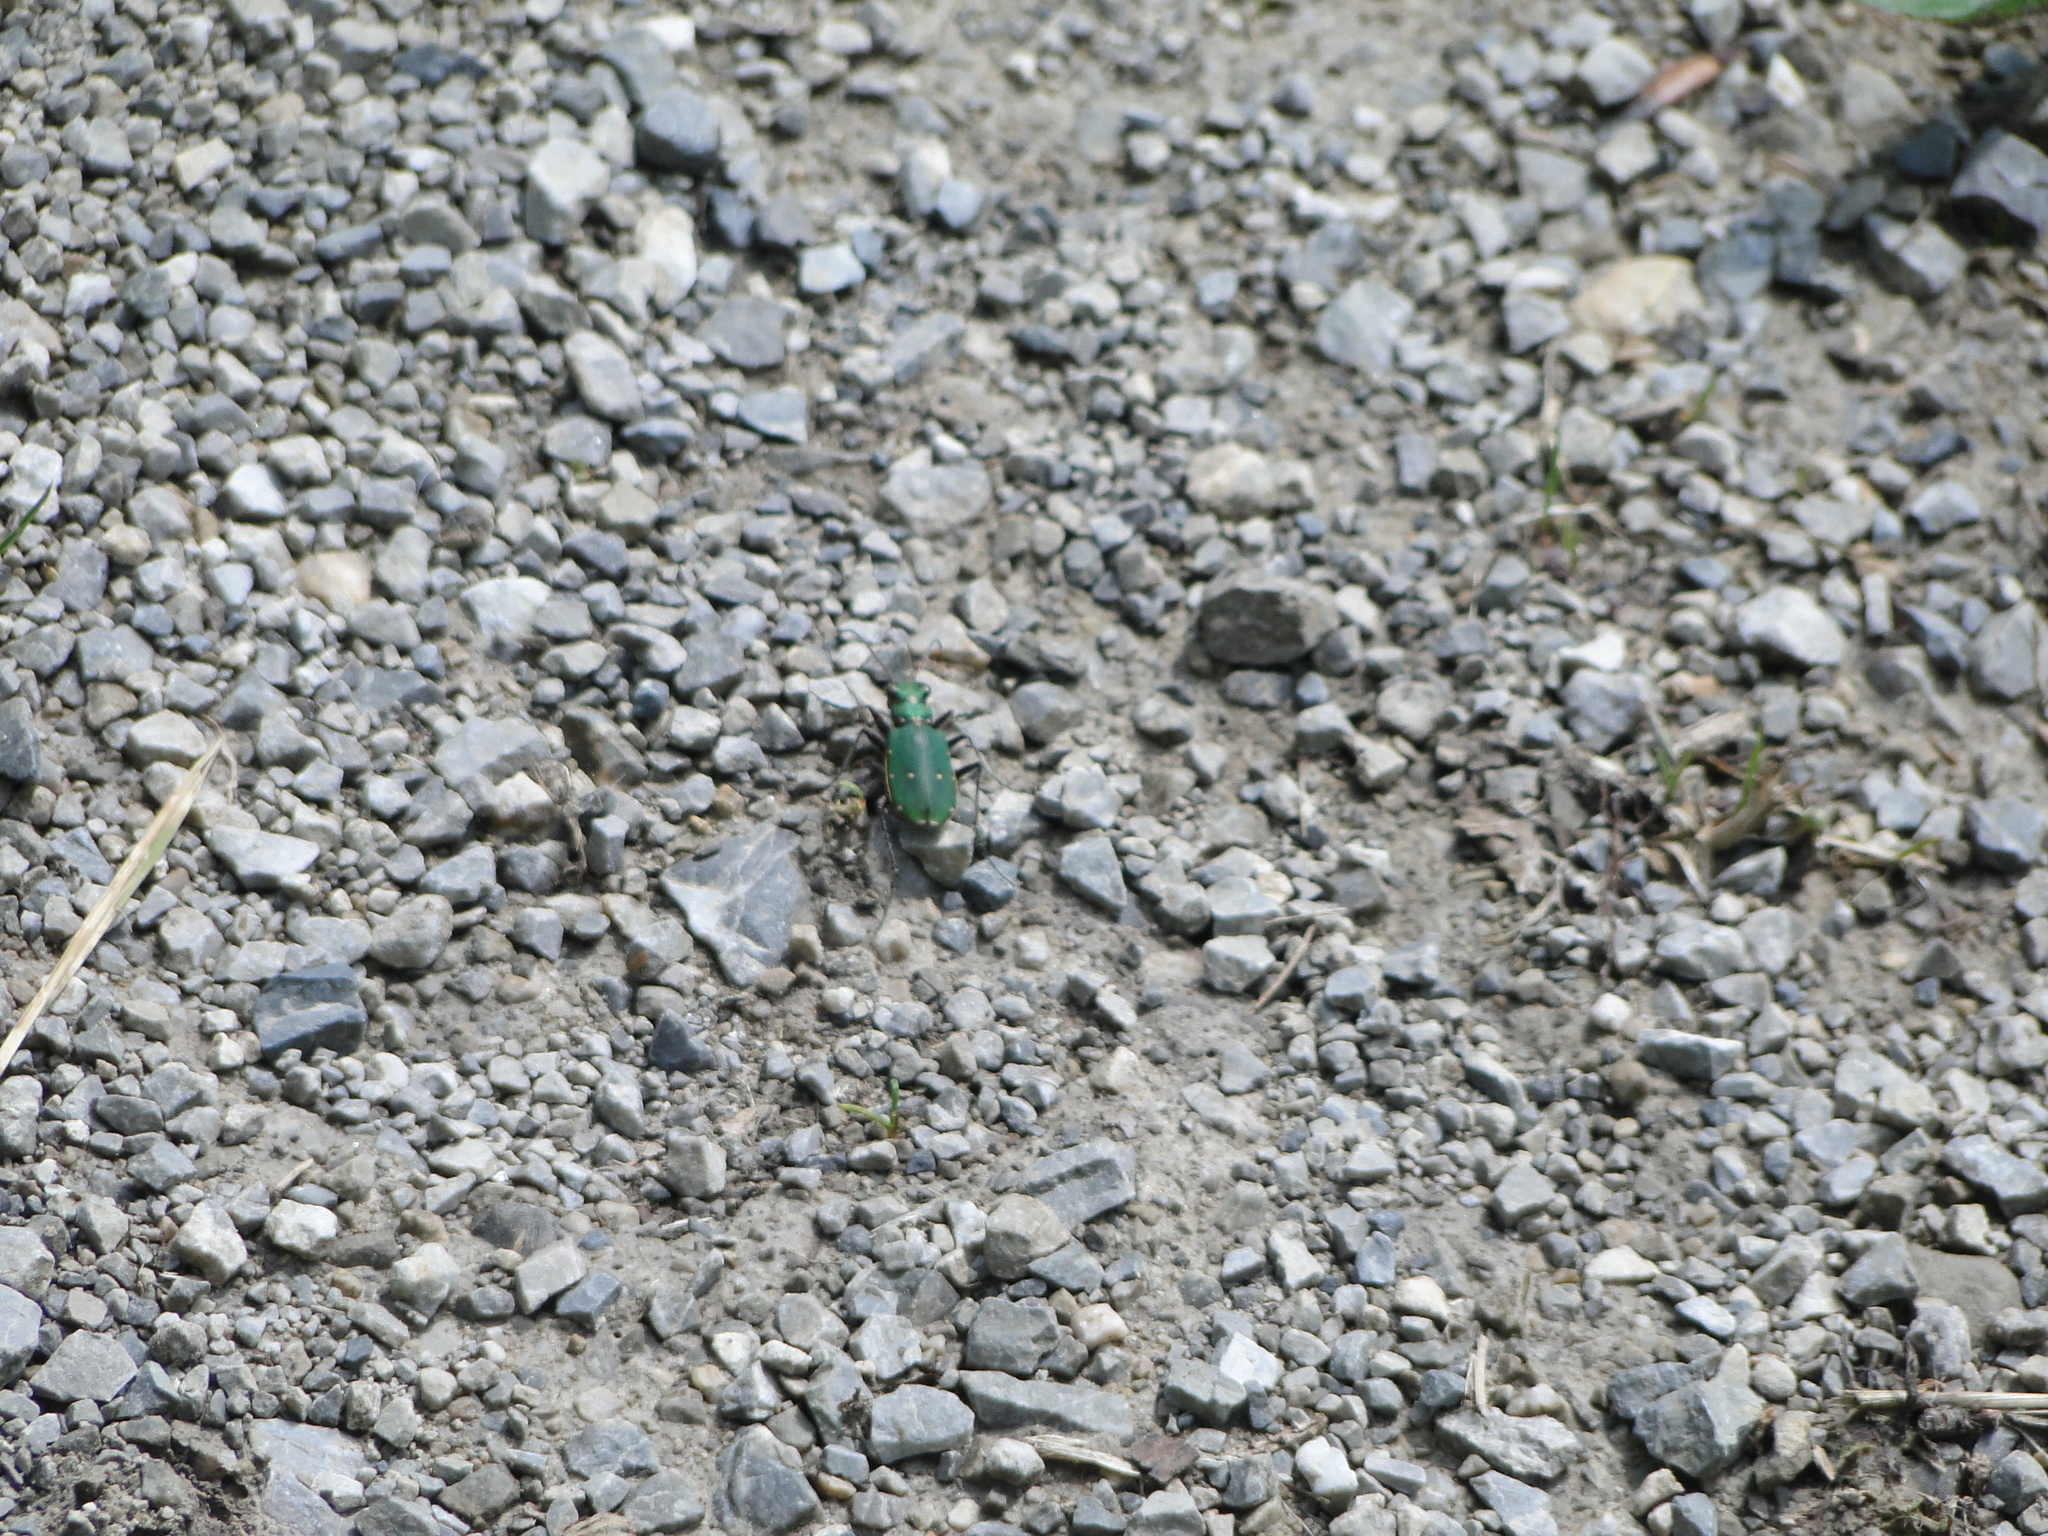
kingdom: Animalia
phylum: Arthropoda
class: Insecta
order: Coleoptera
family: Carabidae
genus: Cicindela
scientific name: Cicindela campestris
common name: Common tiger beetle
